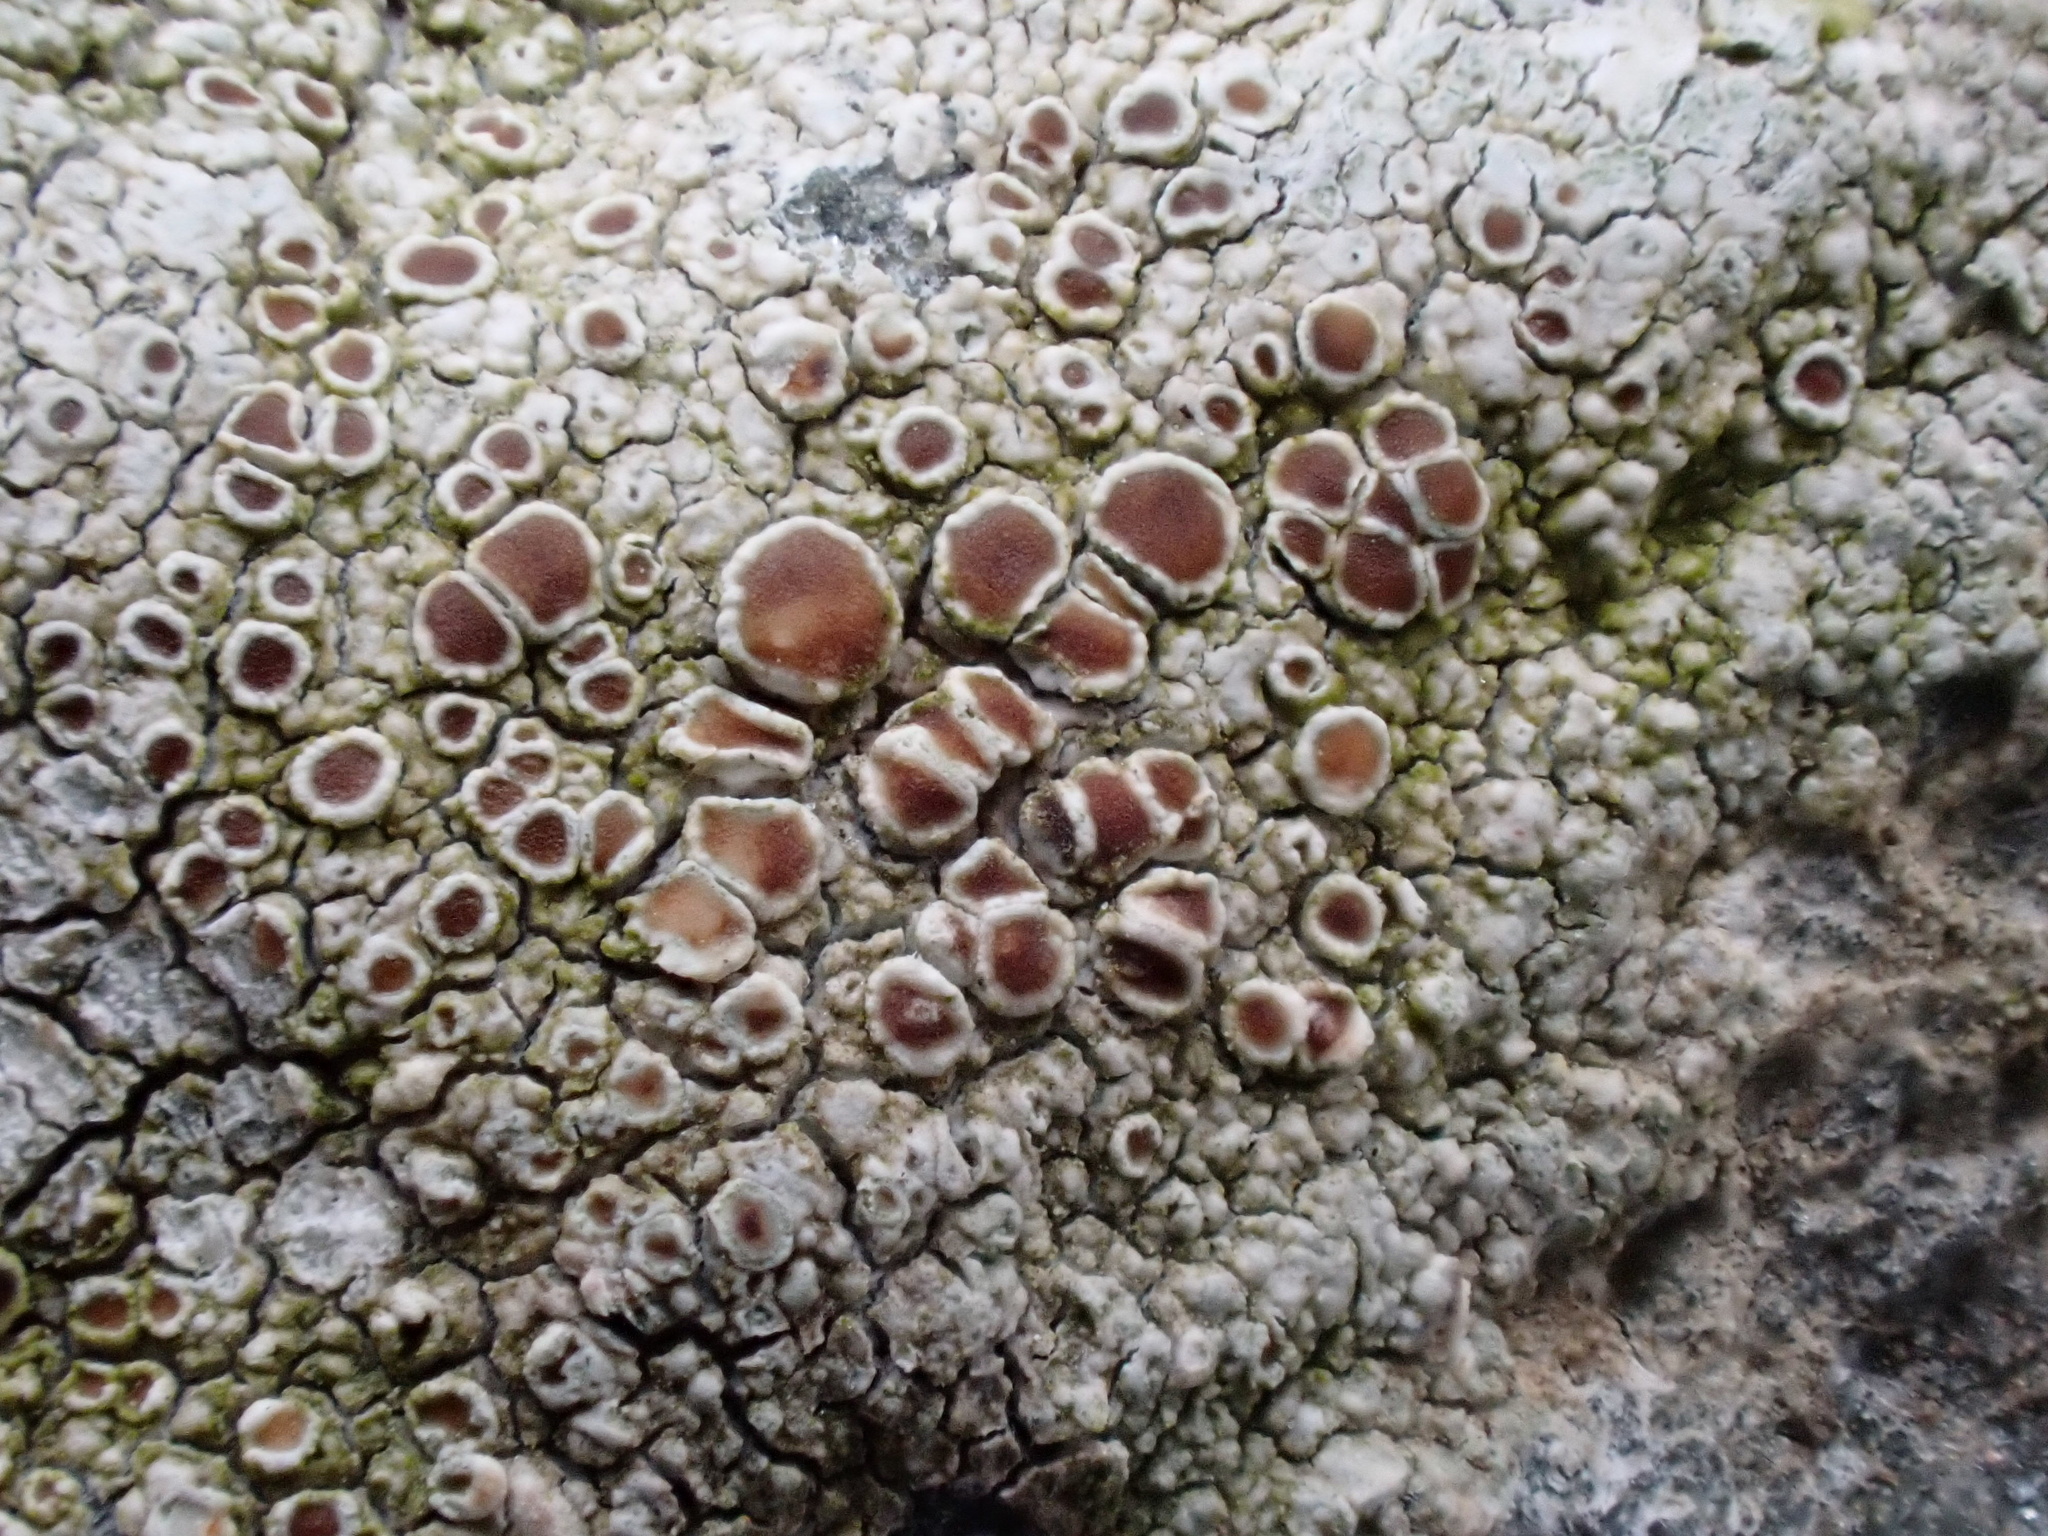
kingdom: Fungi
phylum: Ascomycota
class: Lecanoromycetes
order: Lecanorales
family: Lecanoraceae
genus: Lecanora
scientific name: Lecanora campestris
